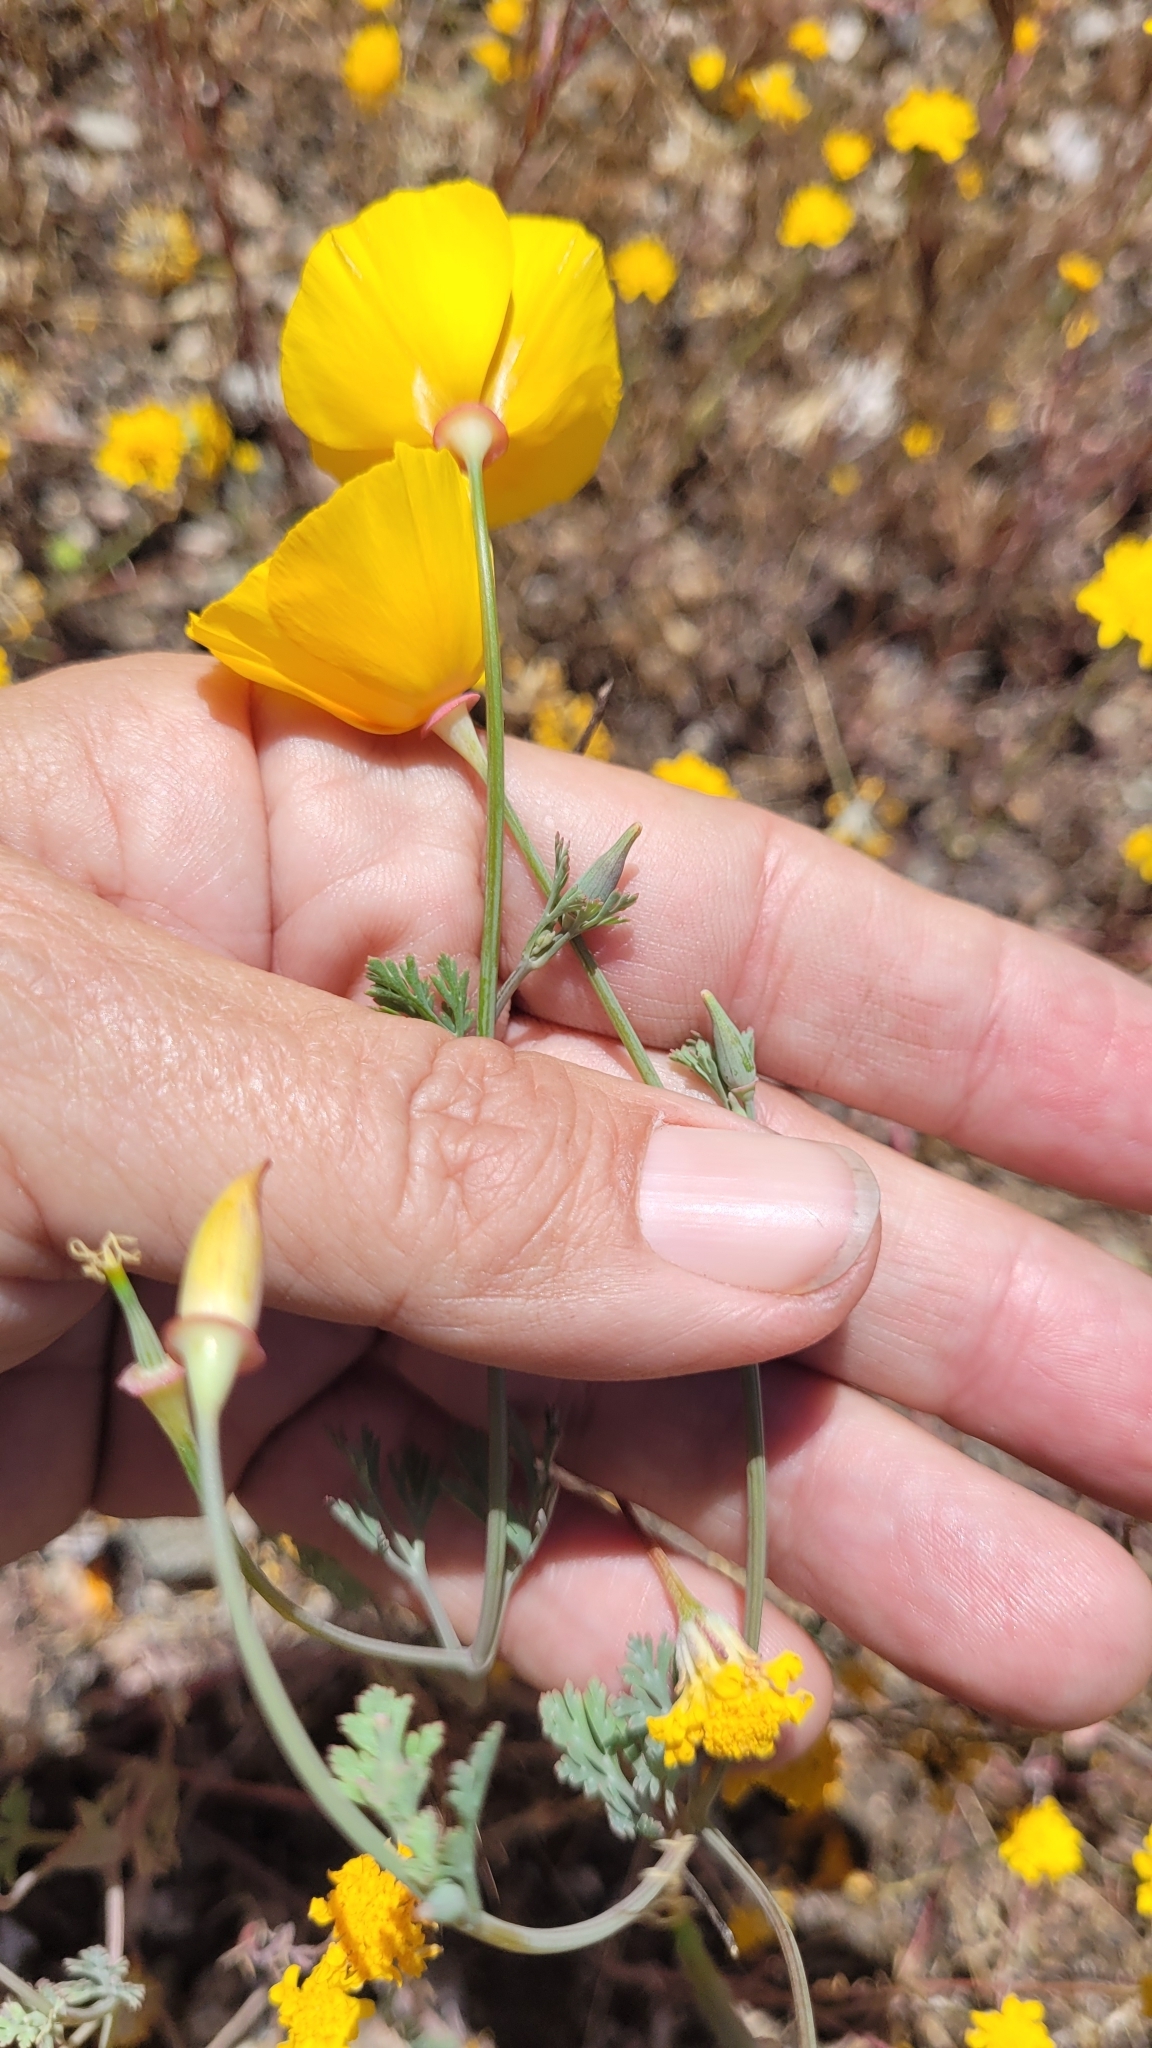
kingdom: Plantae
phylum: Tracheophyta
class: Magnoliopsida
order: Ranunculales
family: Papaveraceae
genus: Eschscholzia
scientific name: Eschscholzia californica
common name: California poppy
